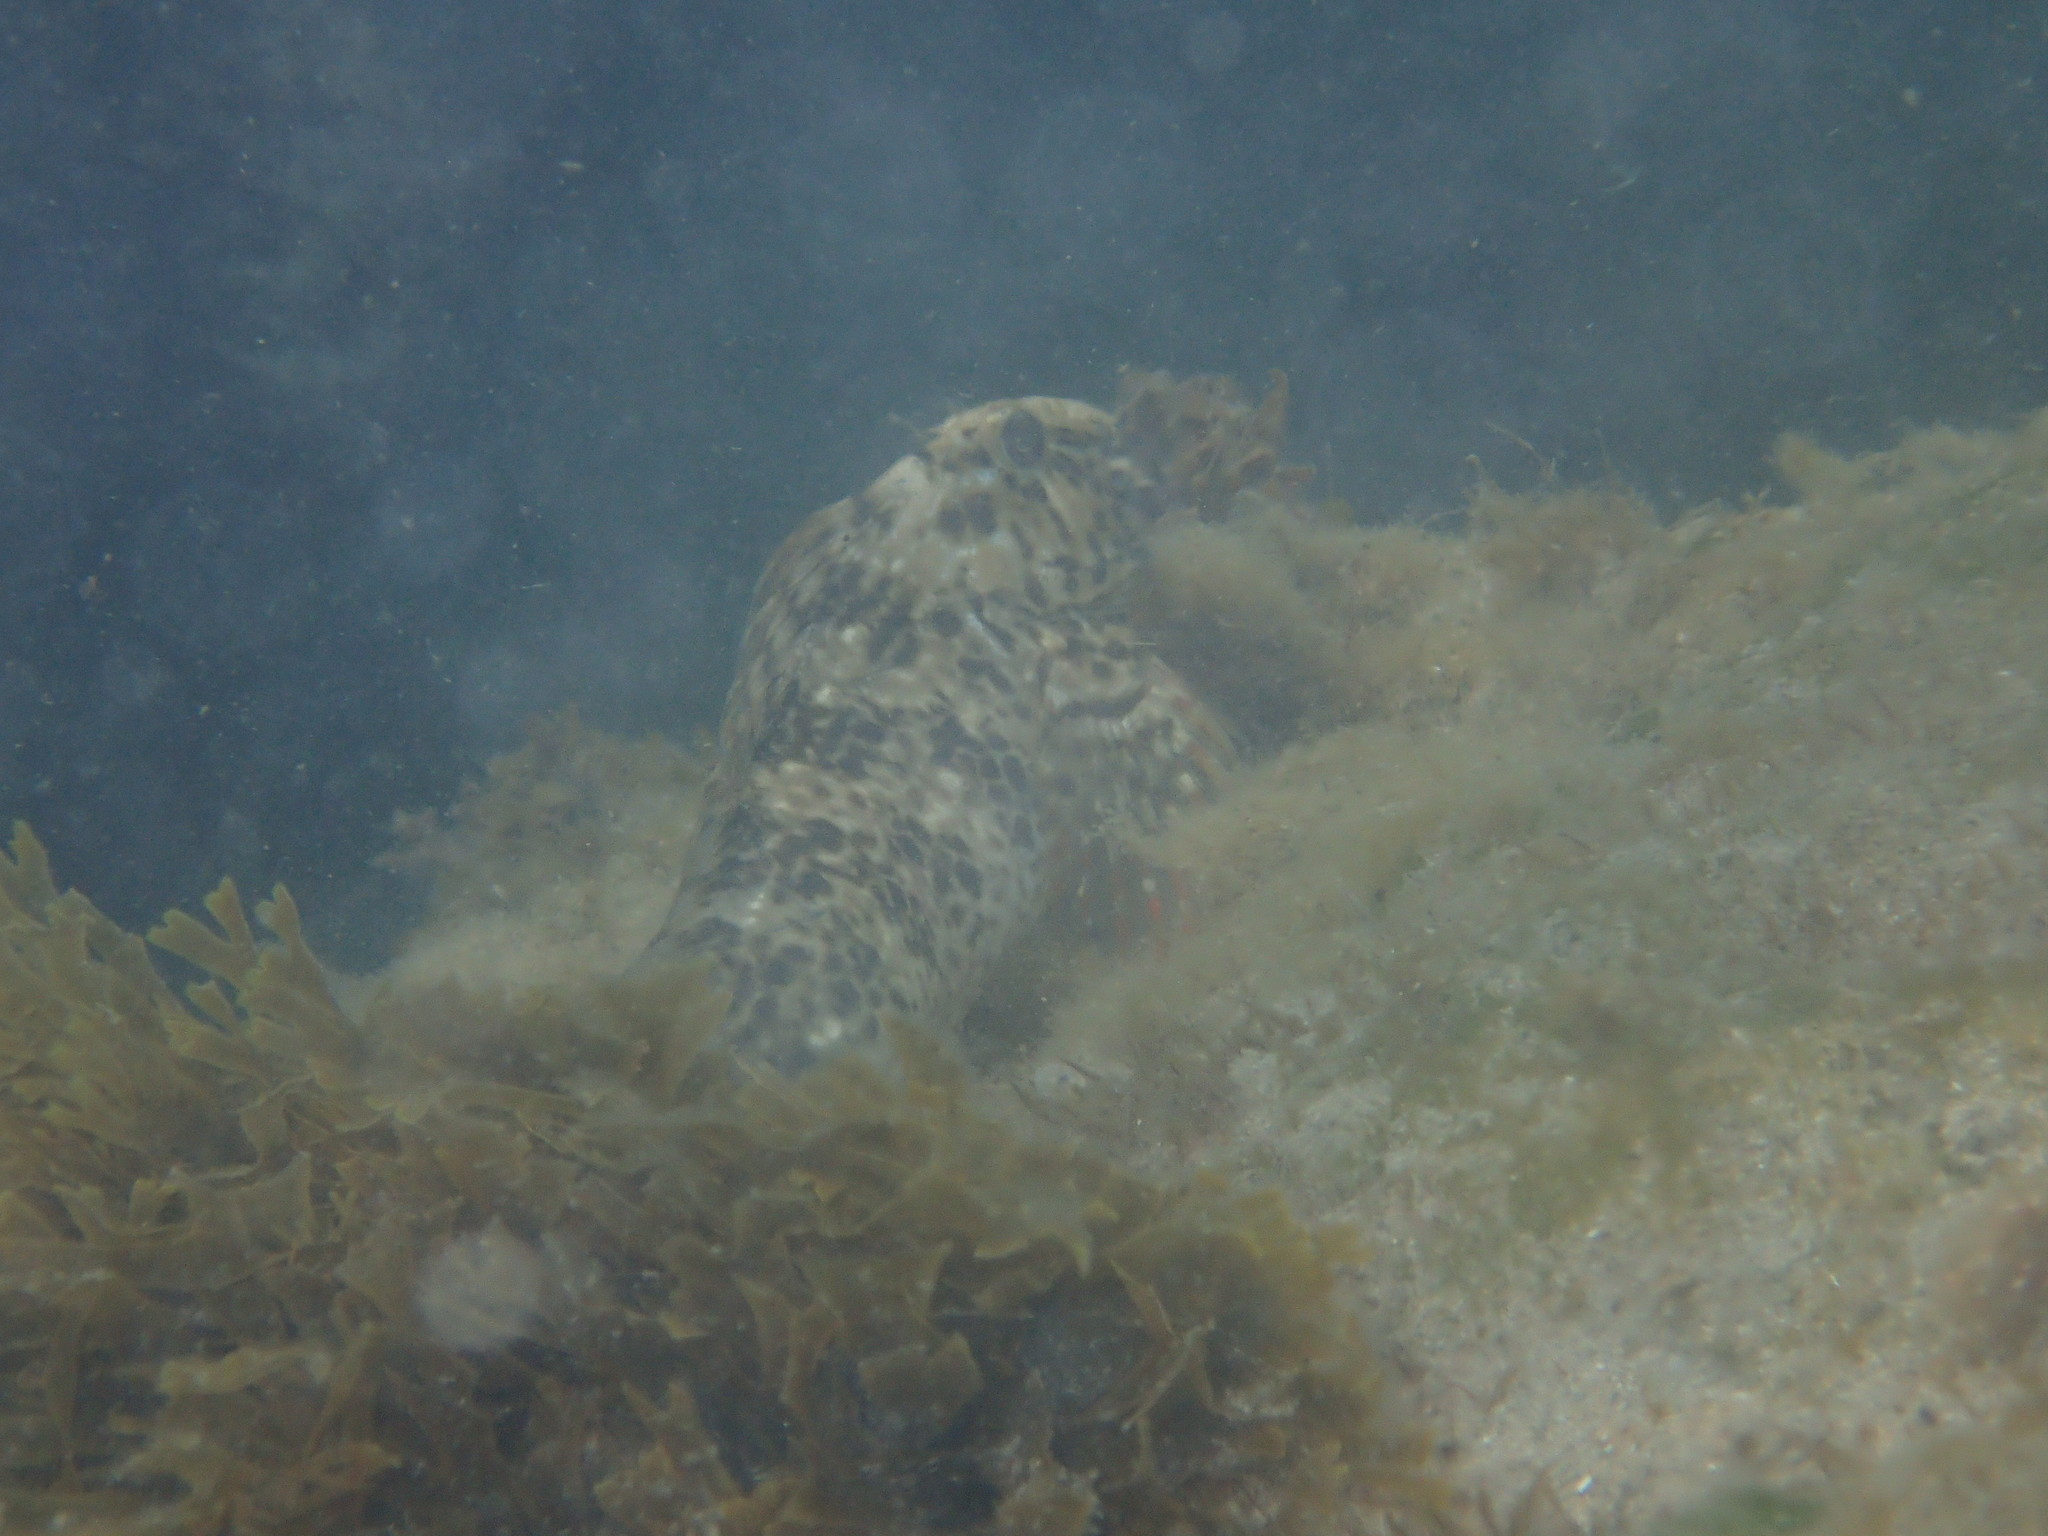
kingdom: Animalia
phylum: Chordata
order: Perciformes
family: Blenniidae
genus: Parablennius
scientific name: Parablennius sanguinolentus
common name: Black sea blenny
